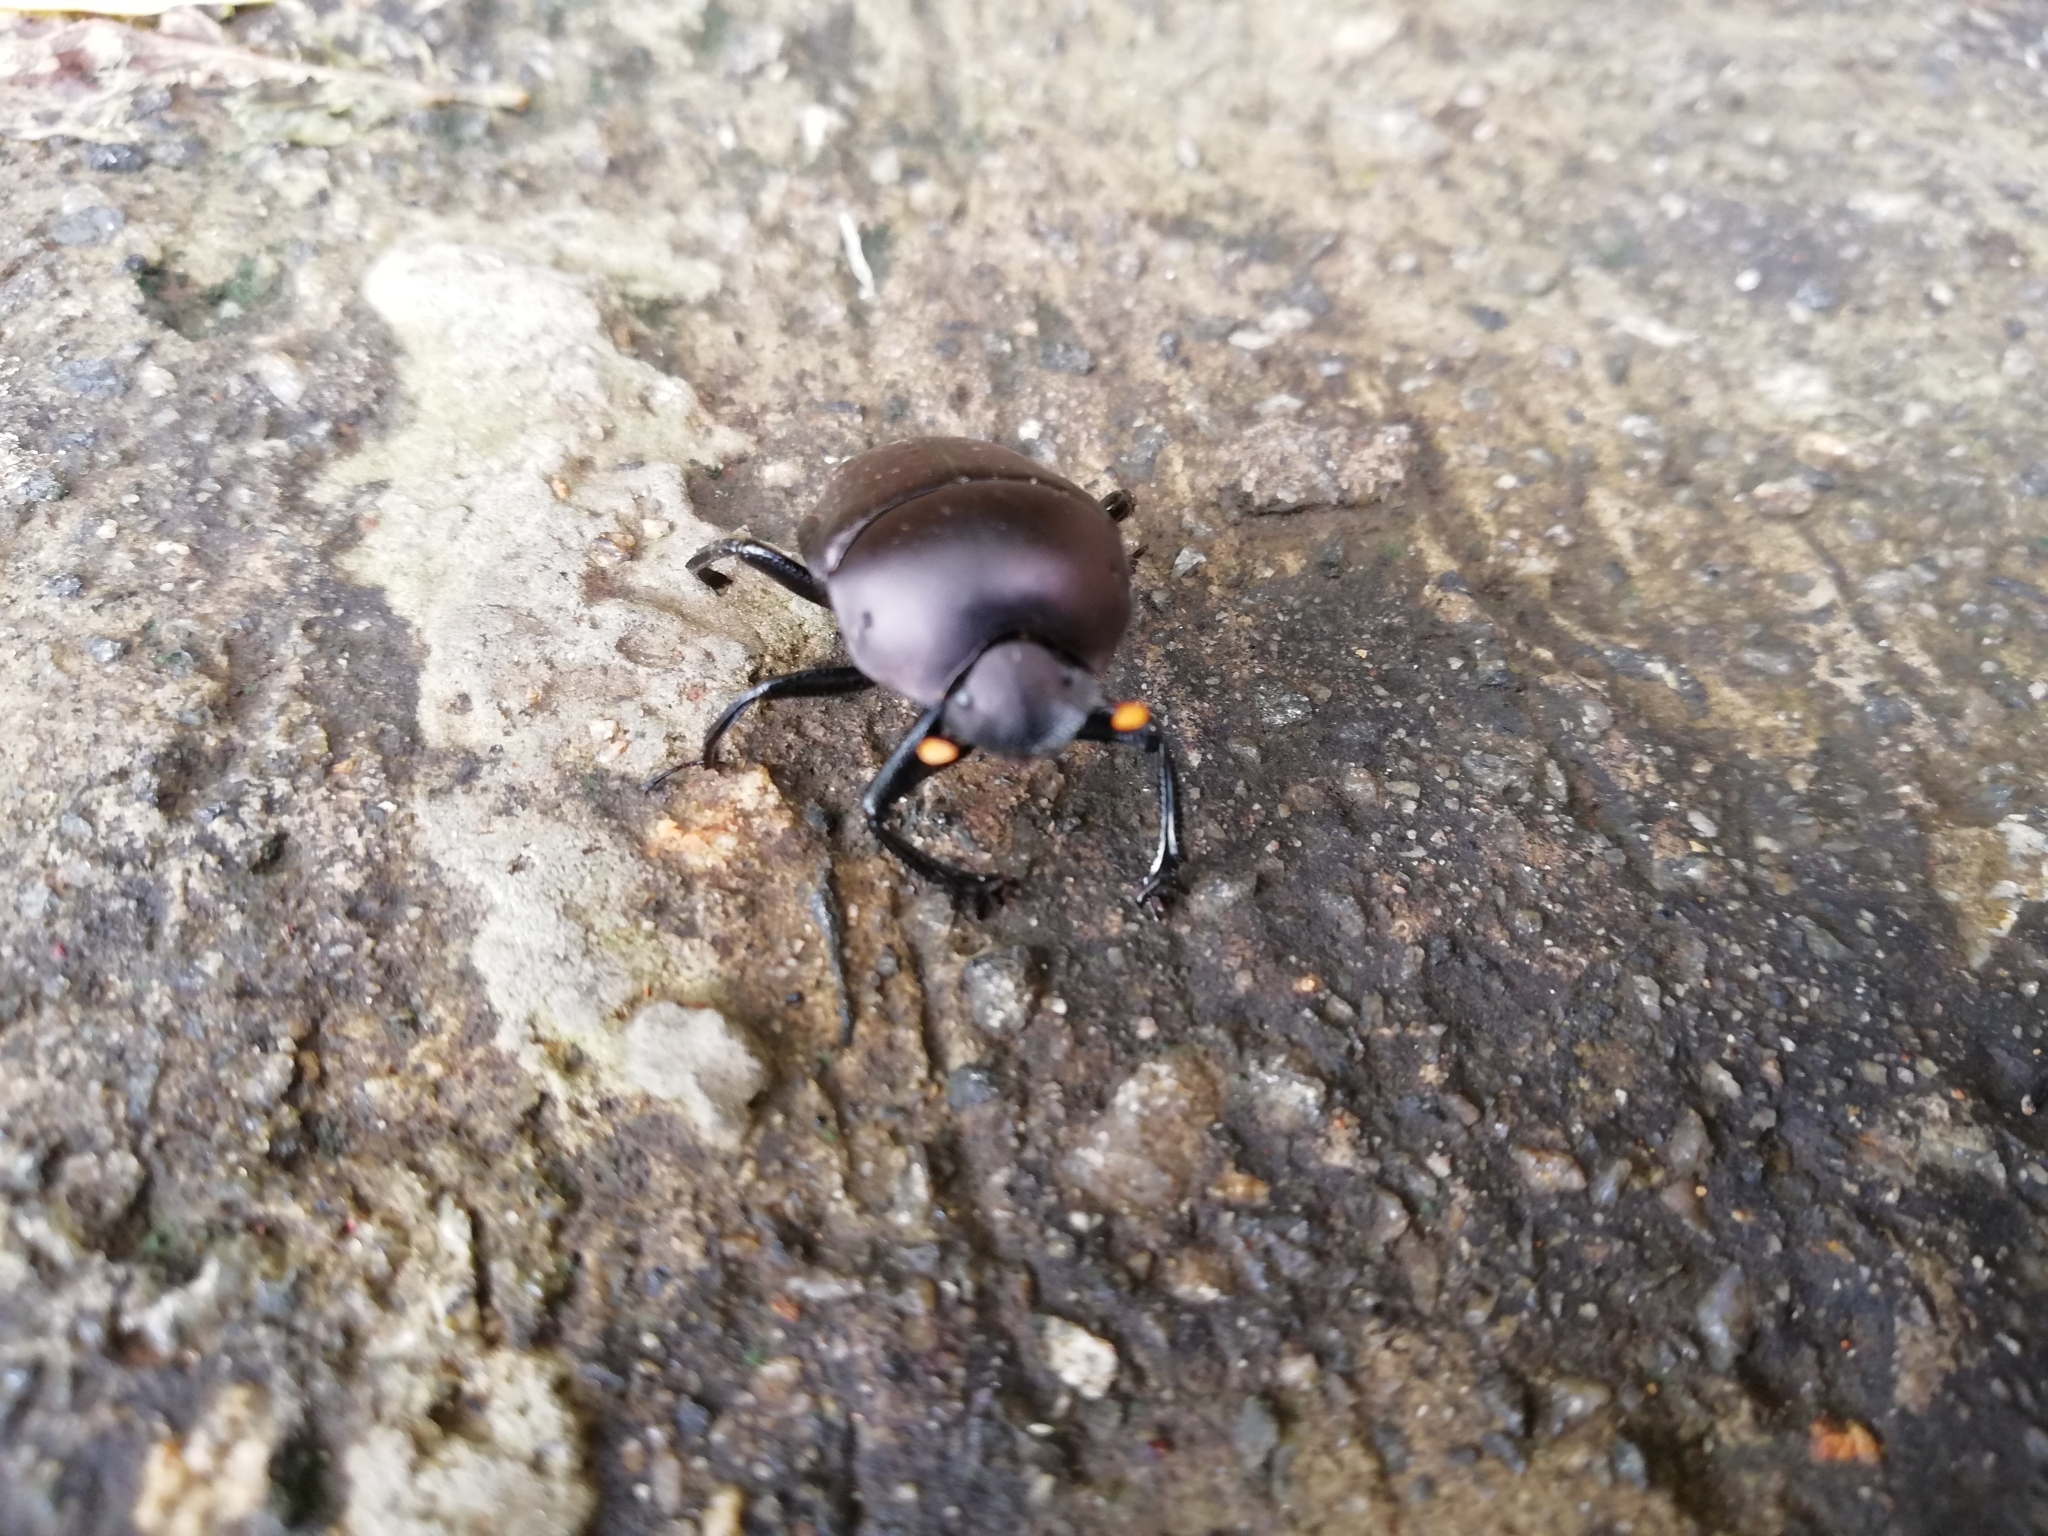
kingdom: Animalia
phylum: Arthropoda
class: Insecta
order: Coleoptera
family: Scarabaeidae
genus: Paragymnopleurus
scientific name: Paragymnopleurus sinuatus
